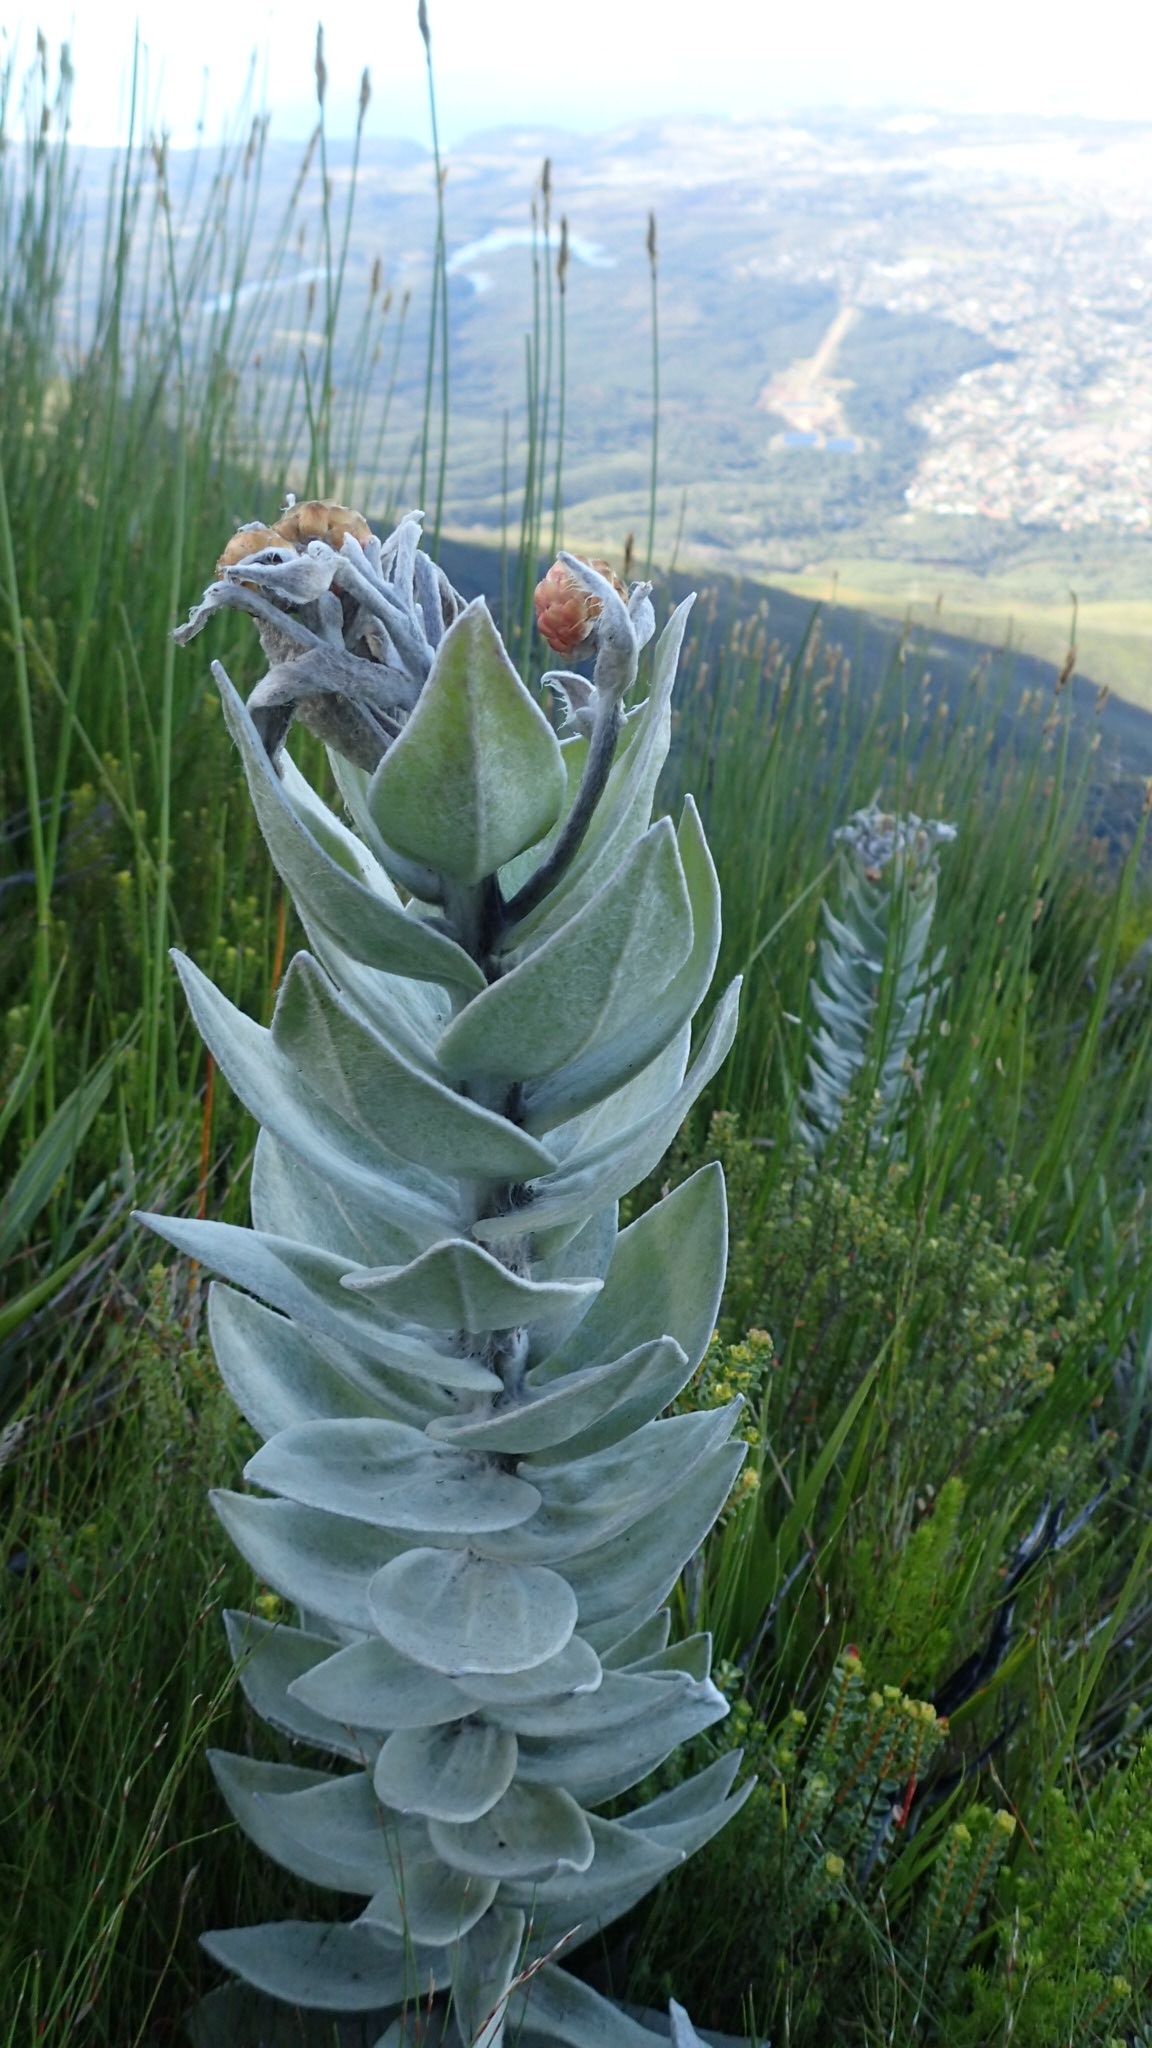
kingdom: Plantae
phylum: Tracheophyta
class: Magnoliopsida
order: Asterales
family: Asteraceae
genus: Syncarpha
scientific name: Syncarpha eximia
